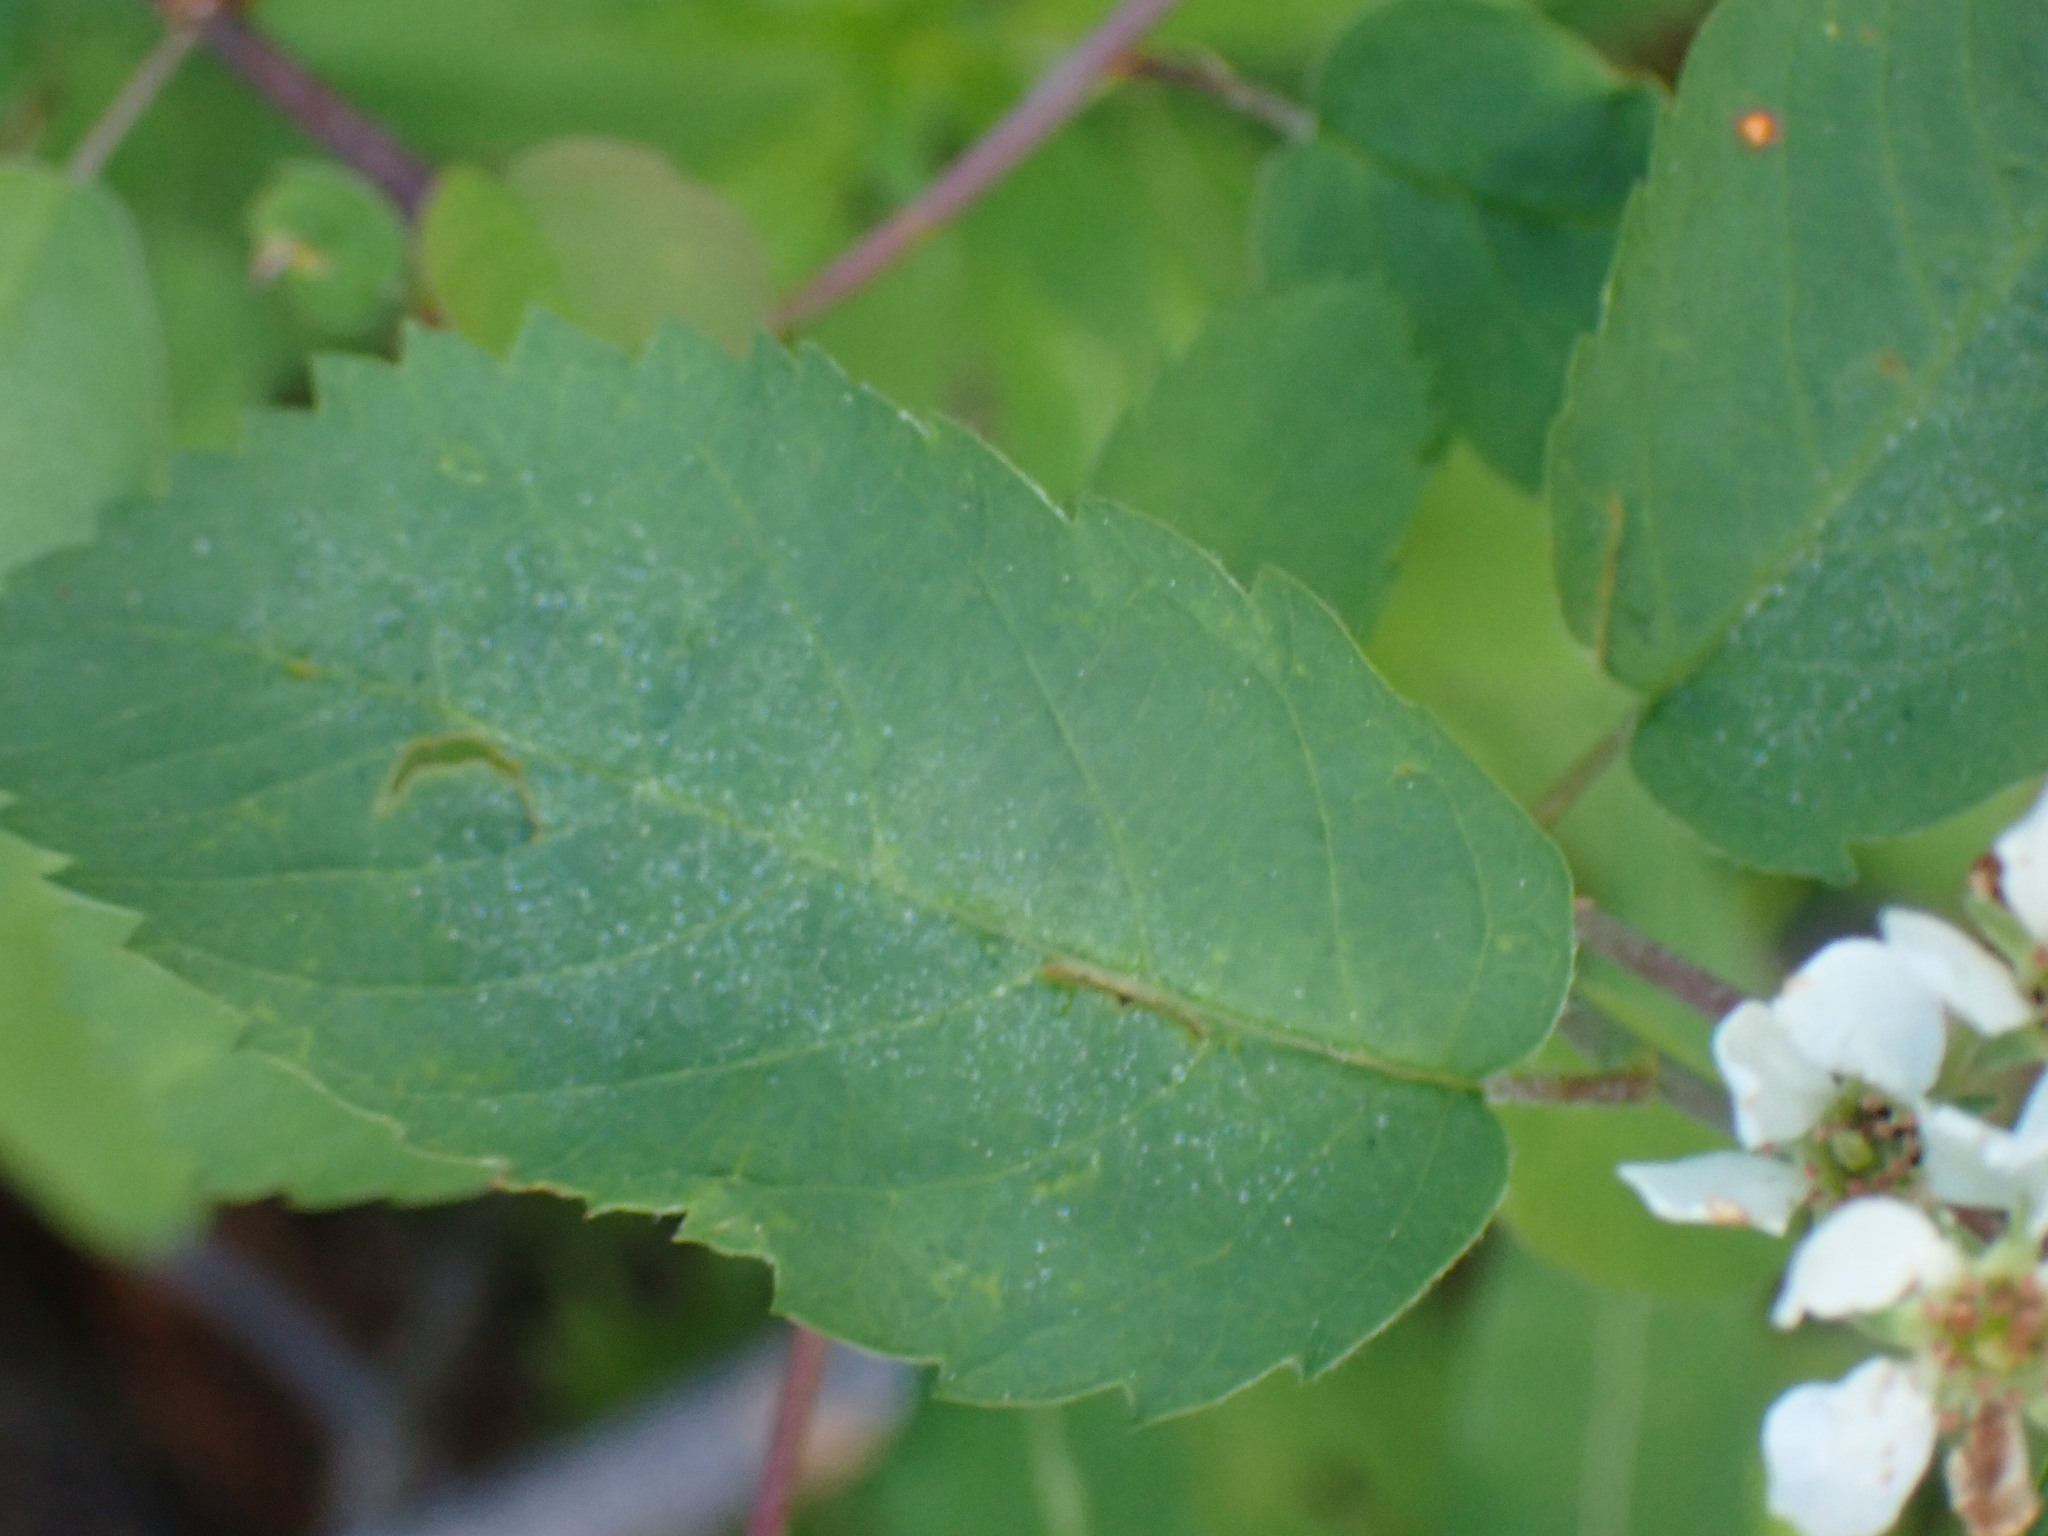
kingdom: Plantae
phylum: Tracheophyta
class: Magnoliopsida
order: Rosales
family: Rosaceae
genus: Amelanchier
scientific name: Amelanchier alnifolia
